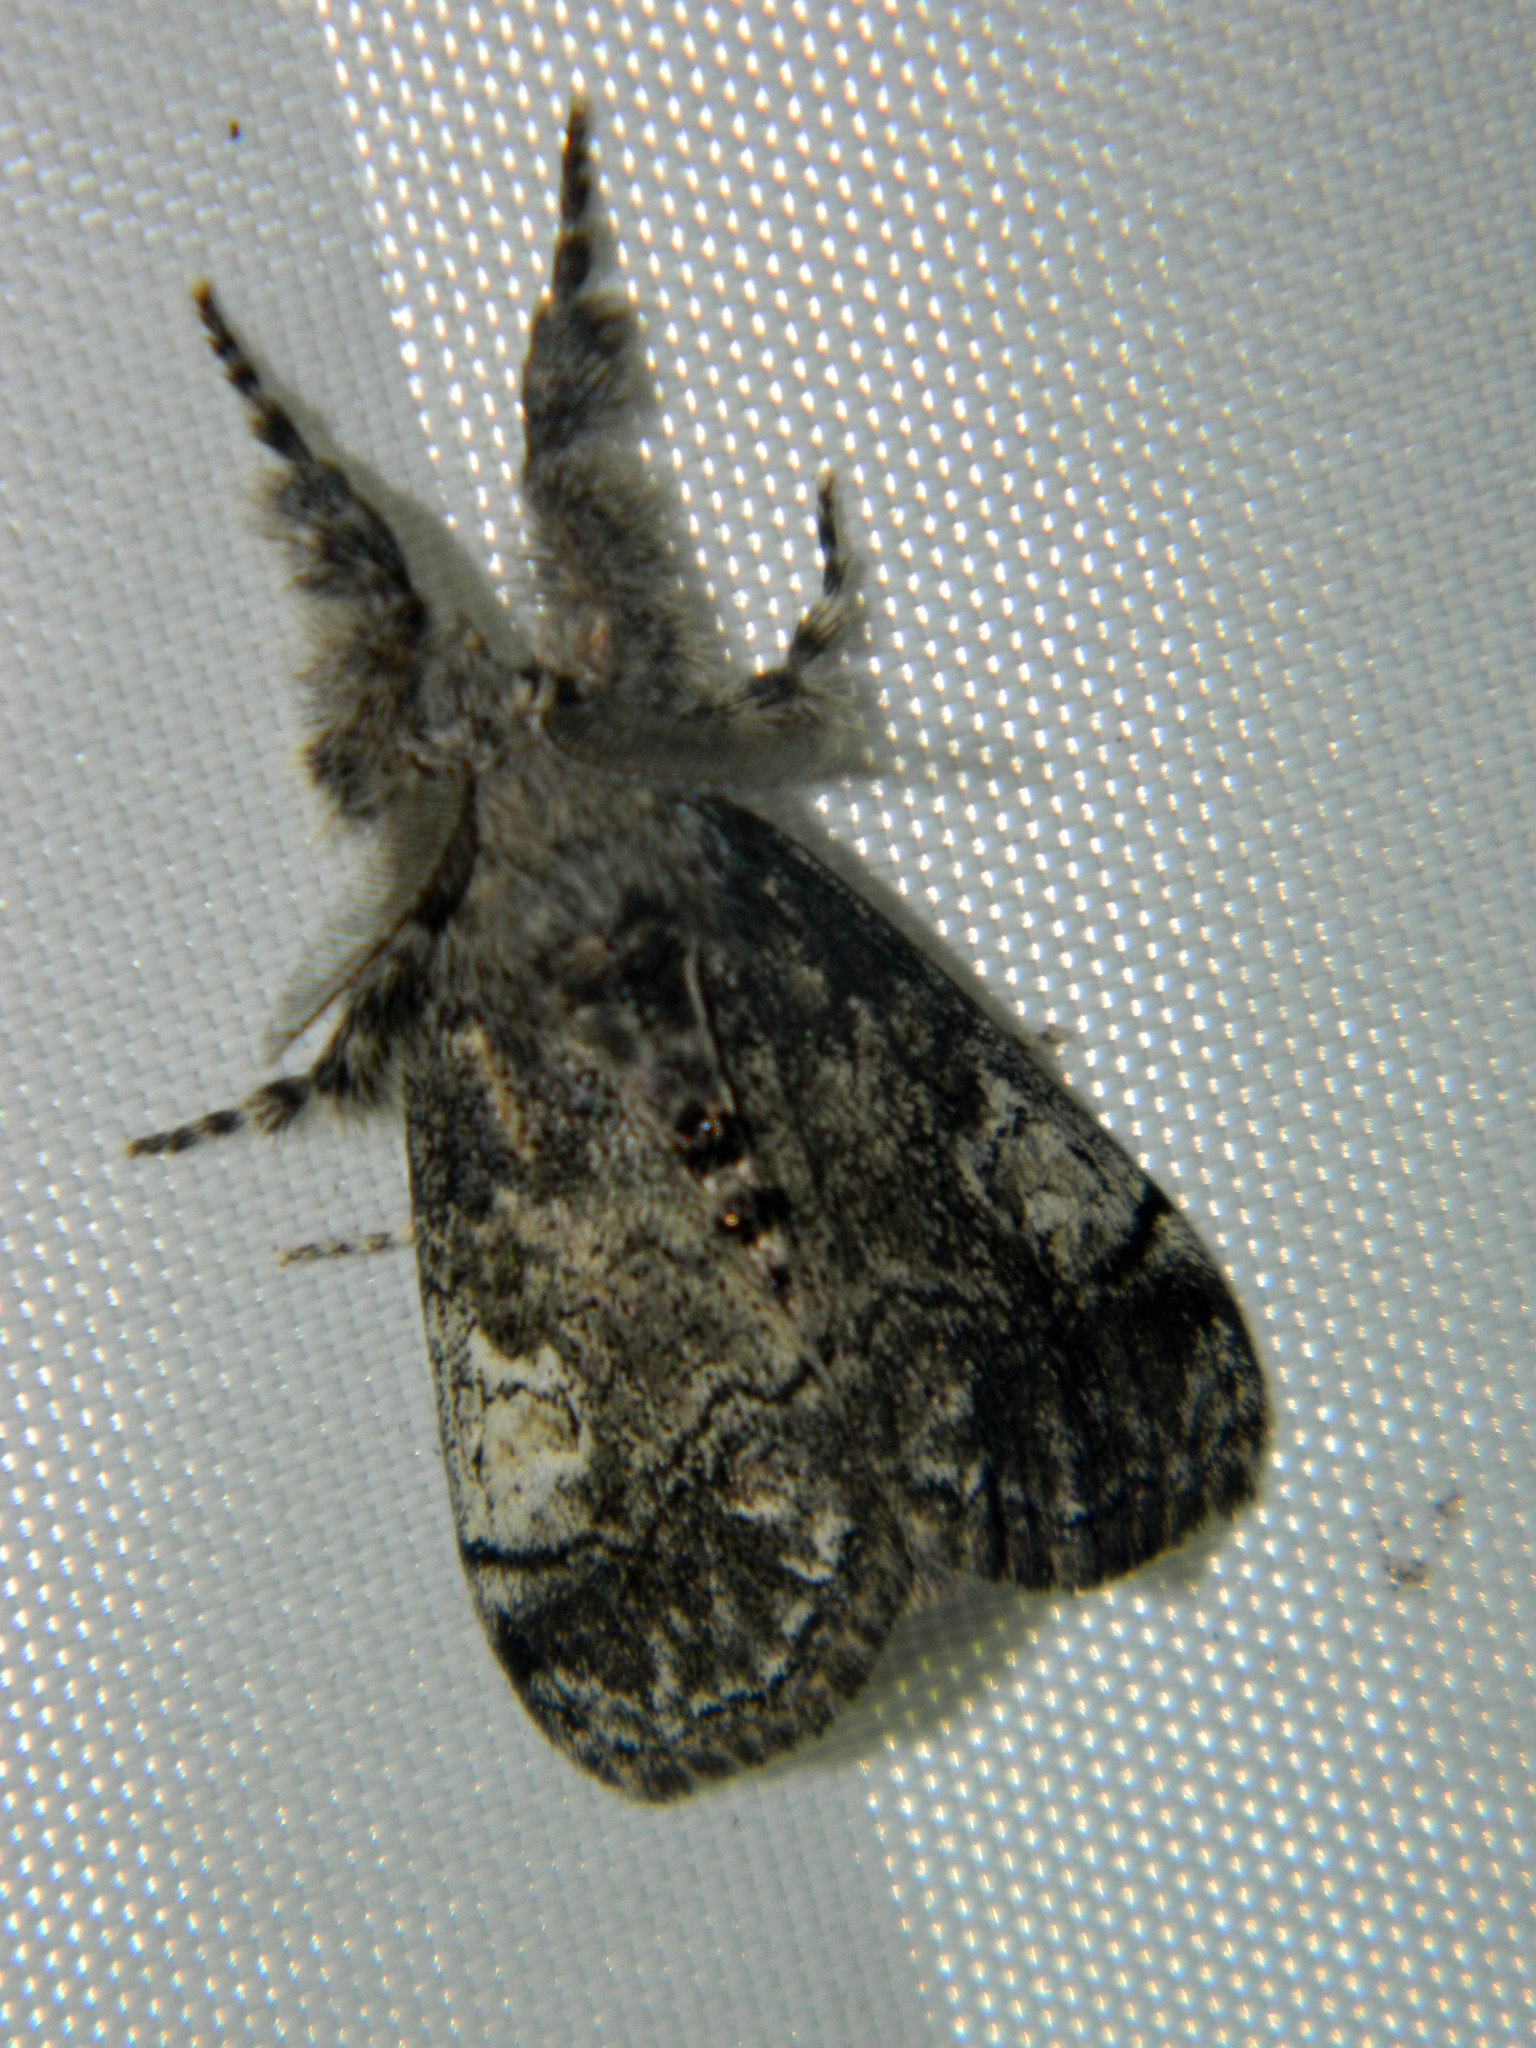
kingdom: Animalia
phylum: Arthropoda
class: Insecta
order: Lepidoptera
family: Erebidae
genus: Dasychira
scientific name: Dasychira vagans
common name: Variable tussock moth
